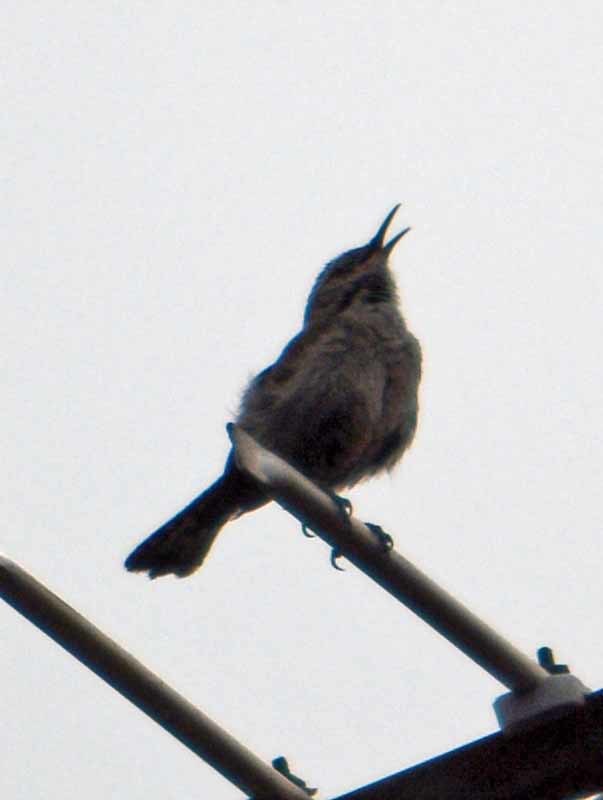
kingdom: Animalia
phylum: Chordata
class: Aves
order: Passeriformes
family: Troglodytidae
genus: Thryomanes
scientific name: Thryomanes bewickii
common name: Bewick's wren
